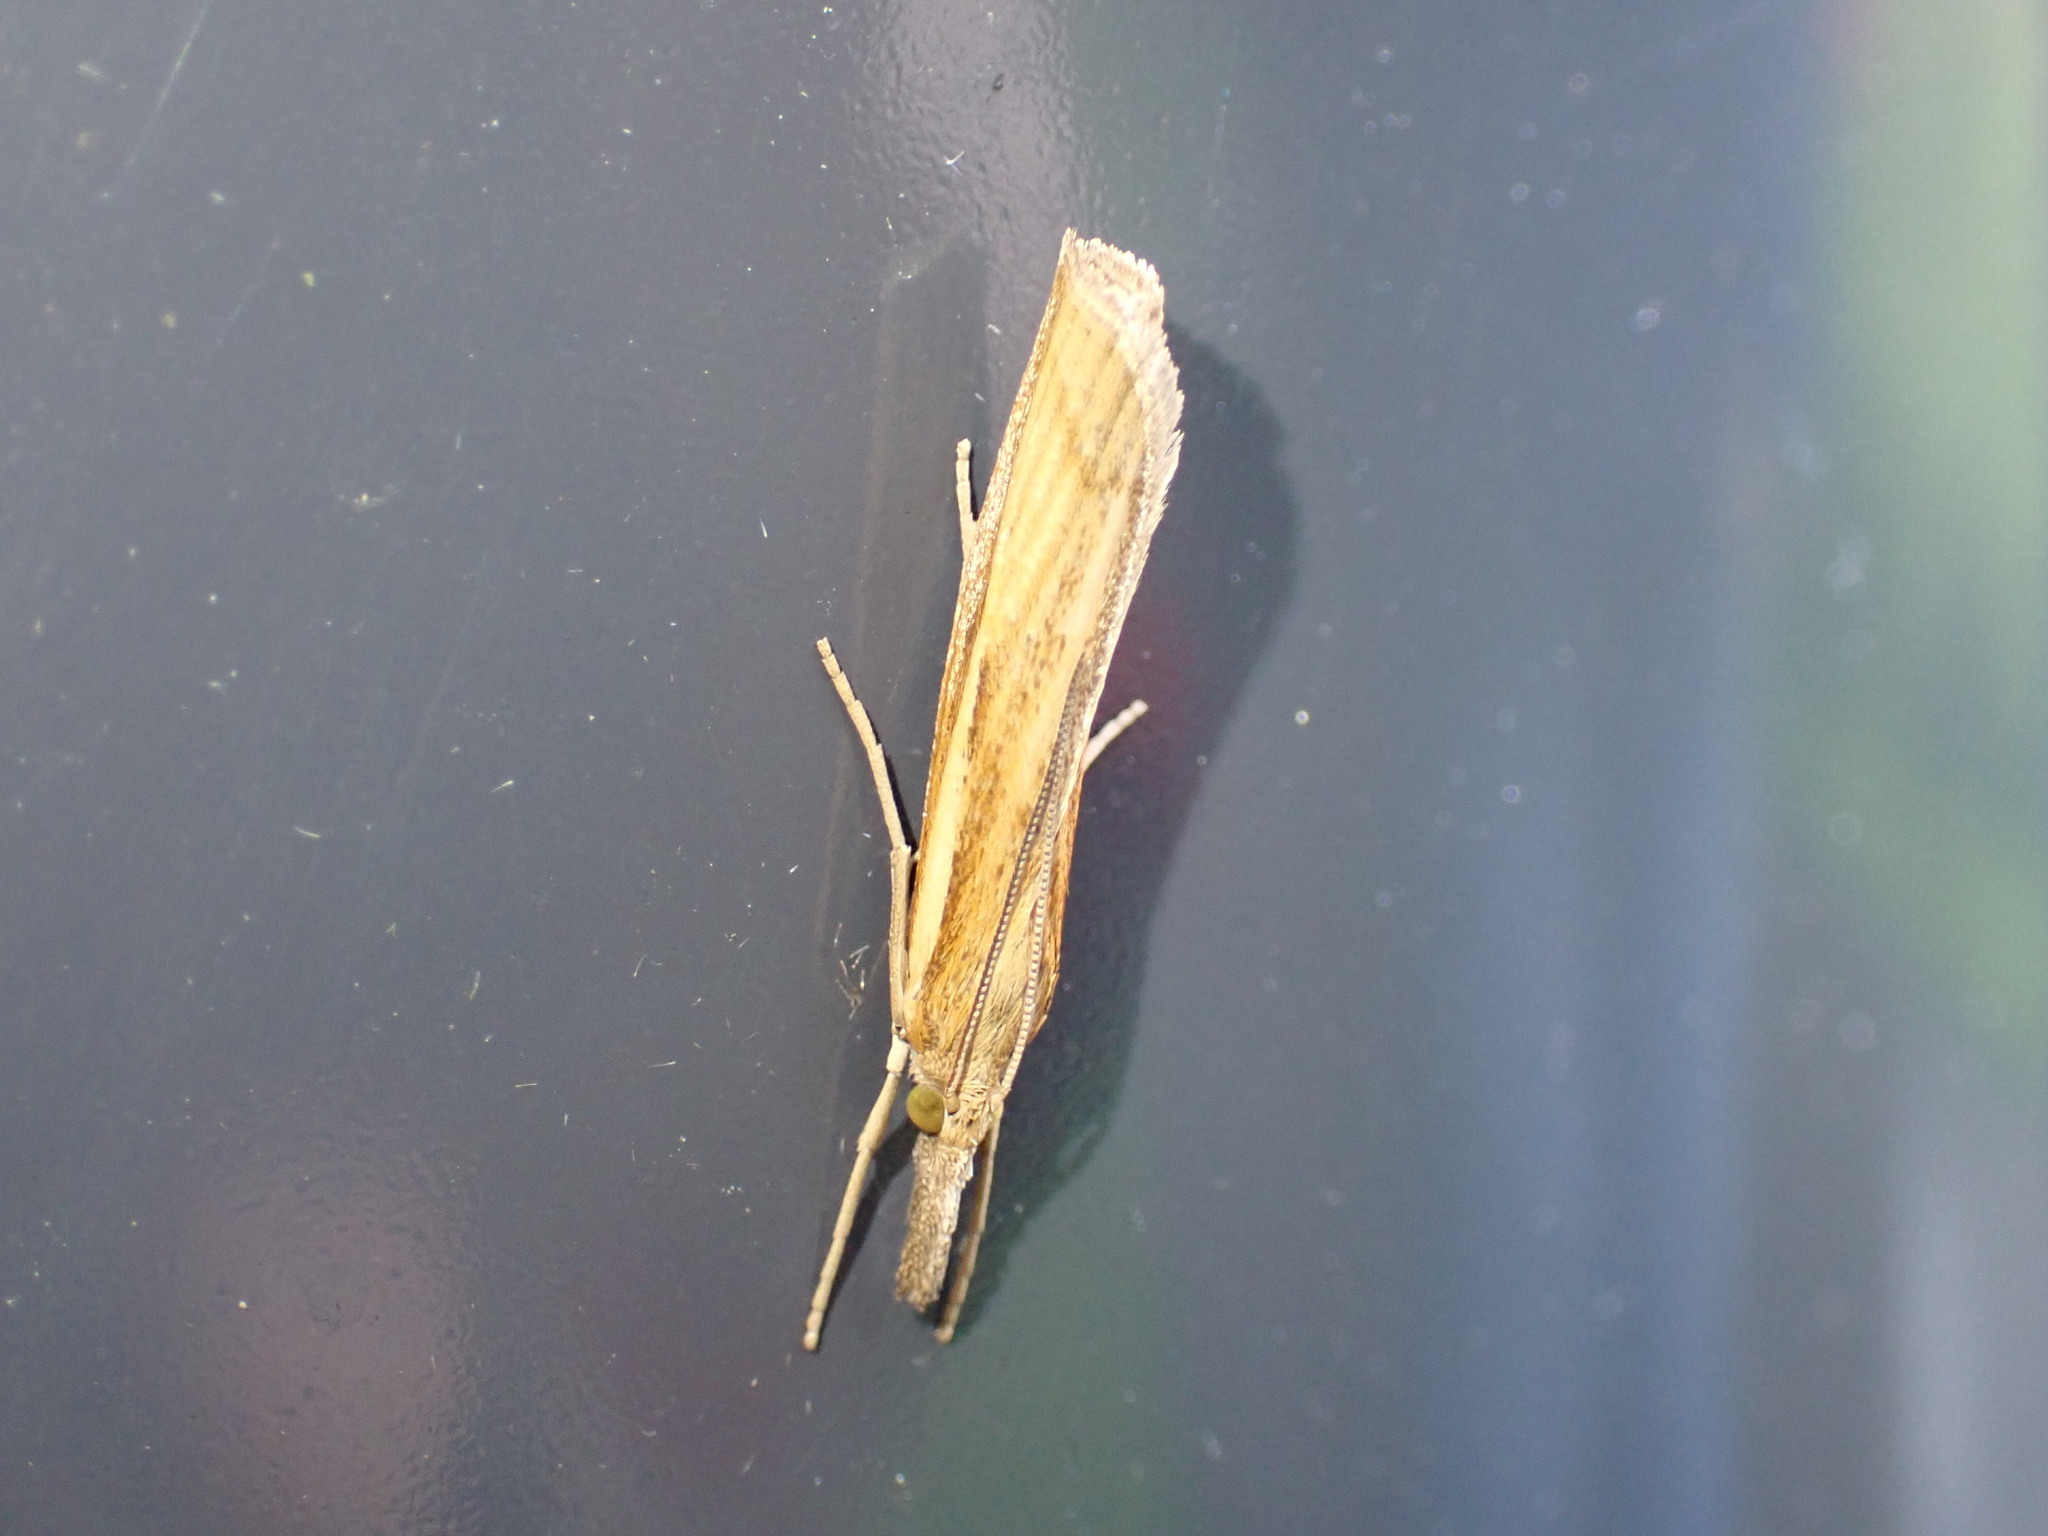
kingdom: Animalia
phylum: Arthropoda
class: Insecta
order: Lepidoptera
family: Crambidae
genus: Agriphila
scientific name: Agriphila tristellus
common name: Common grass-veneer
